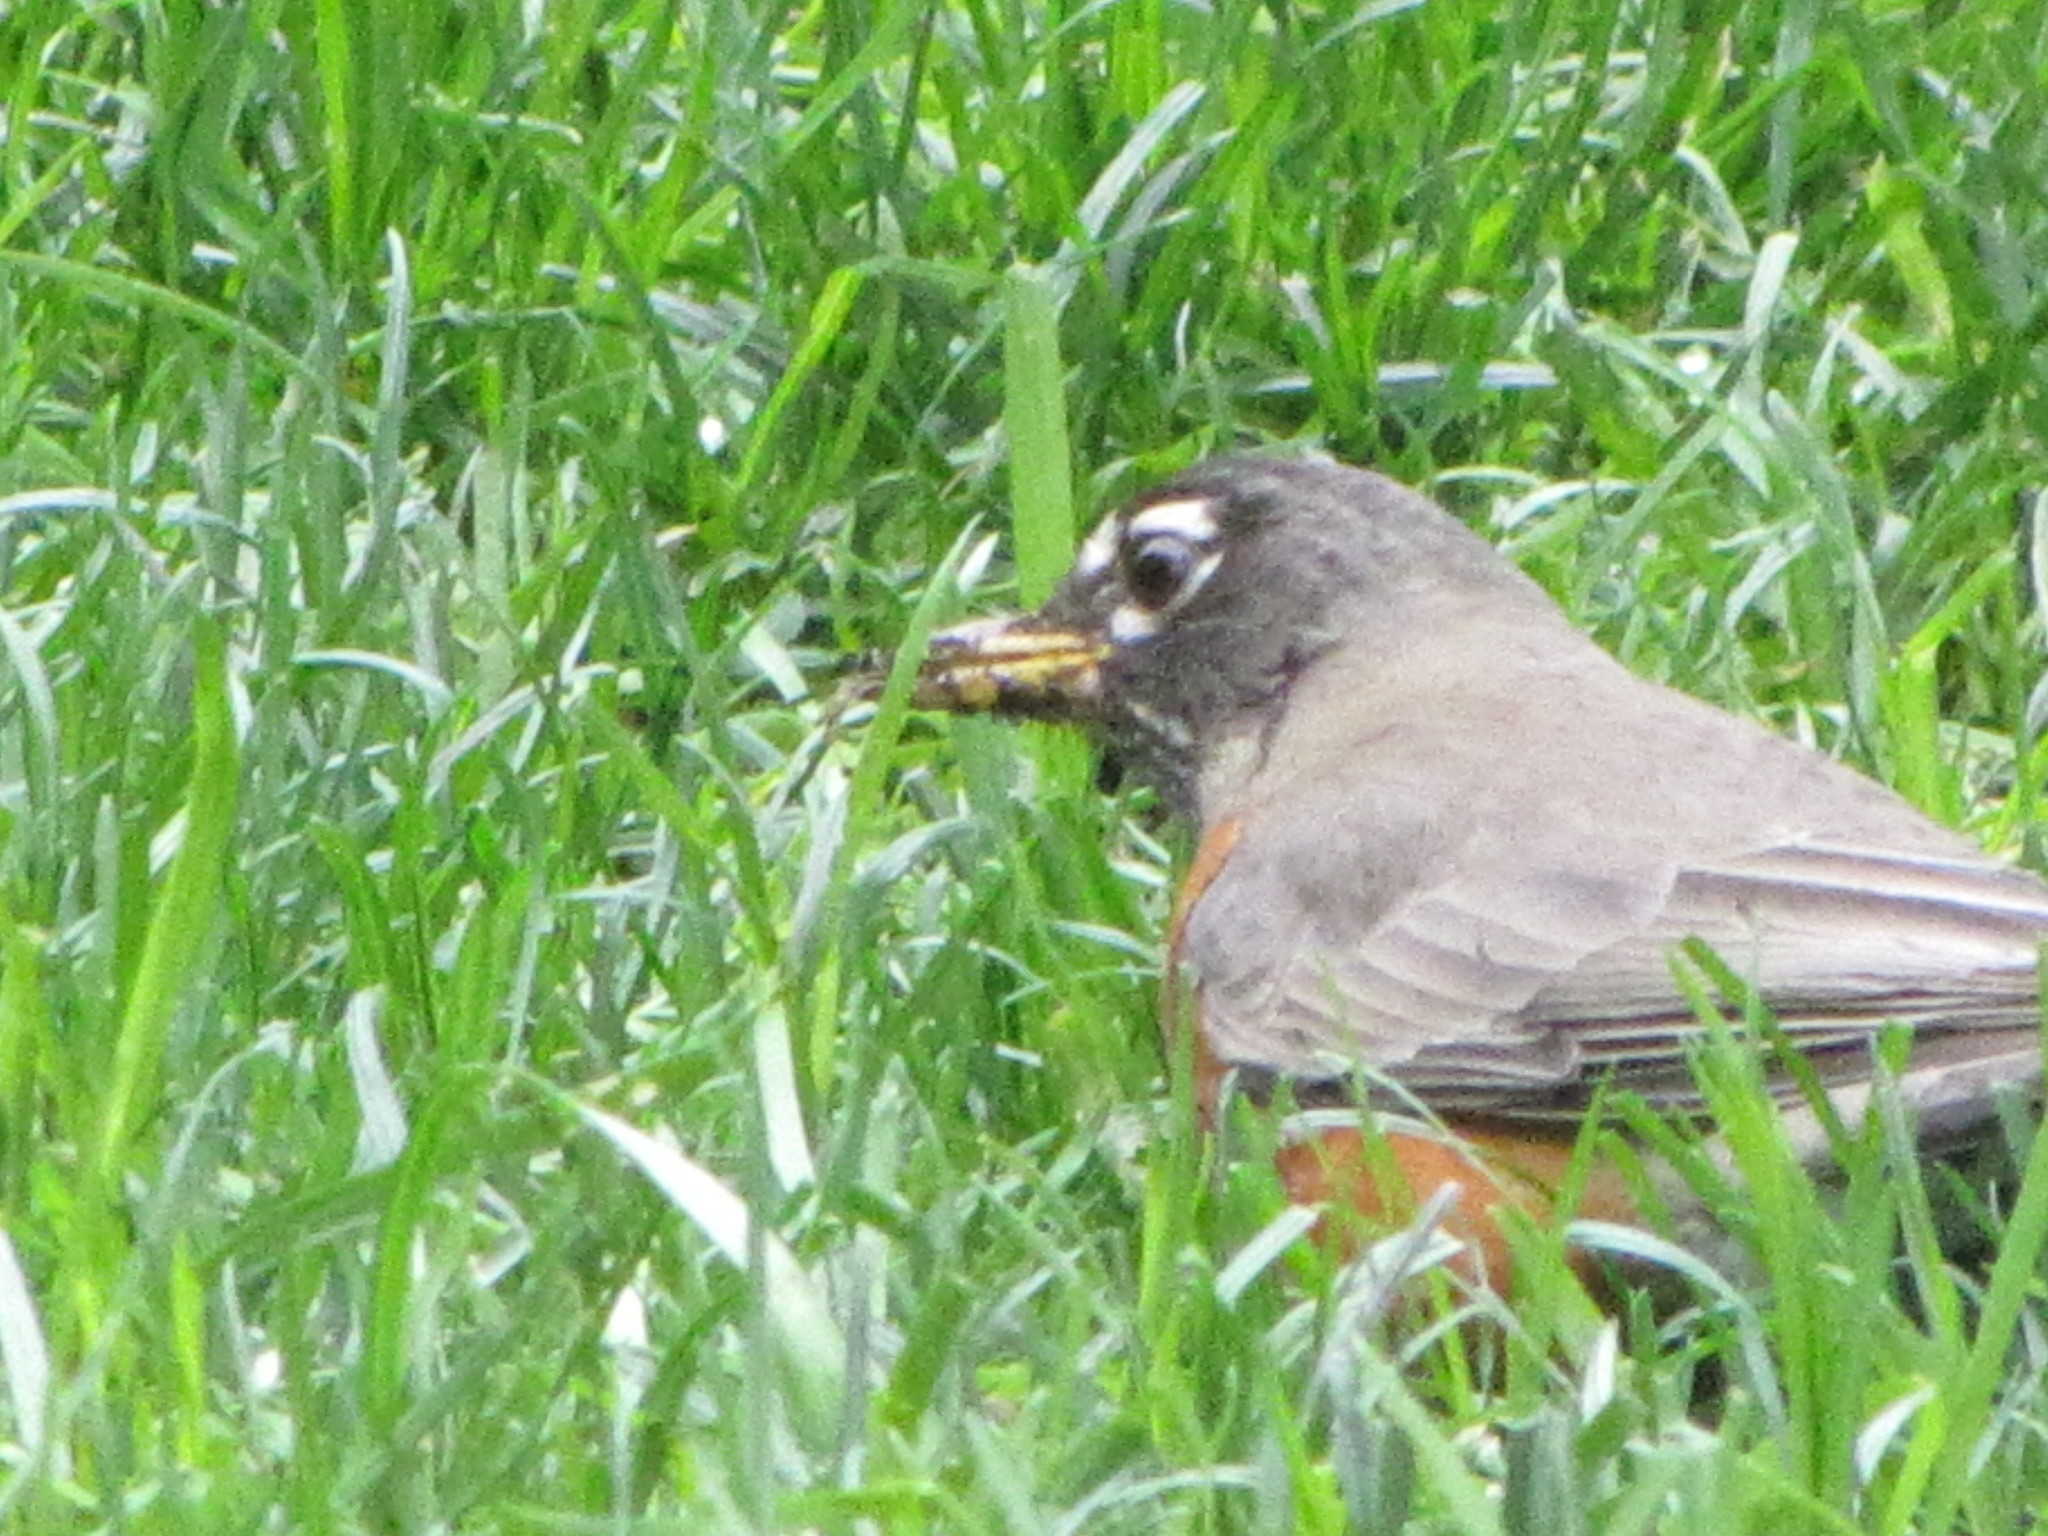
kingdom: Animalia
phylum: Chordata
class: Aves
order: Passeriformes
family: Turdidae
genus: Turdus
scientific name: Turdus migratorius
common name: American robin
